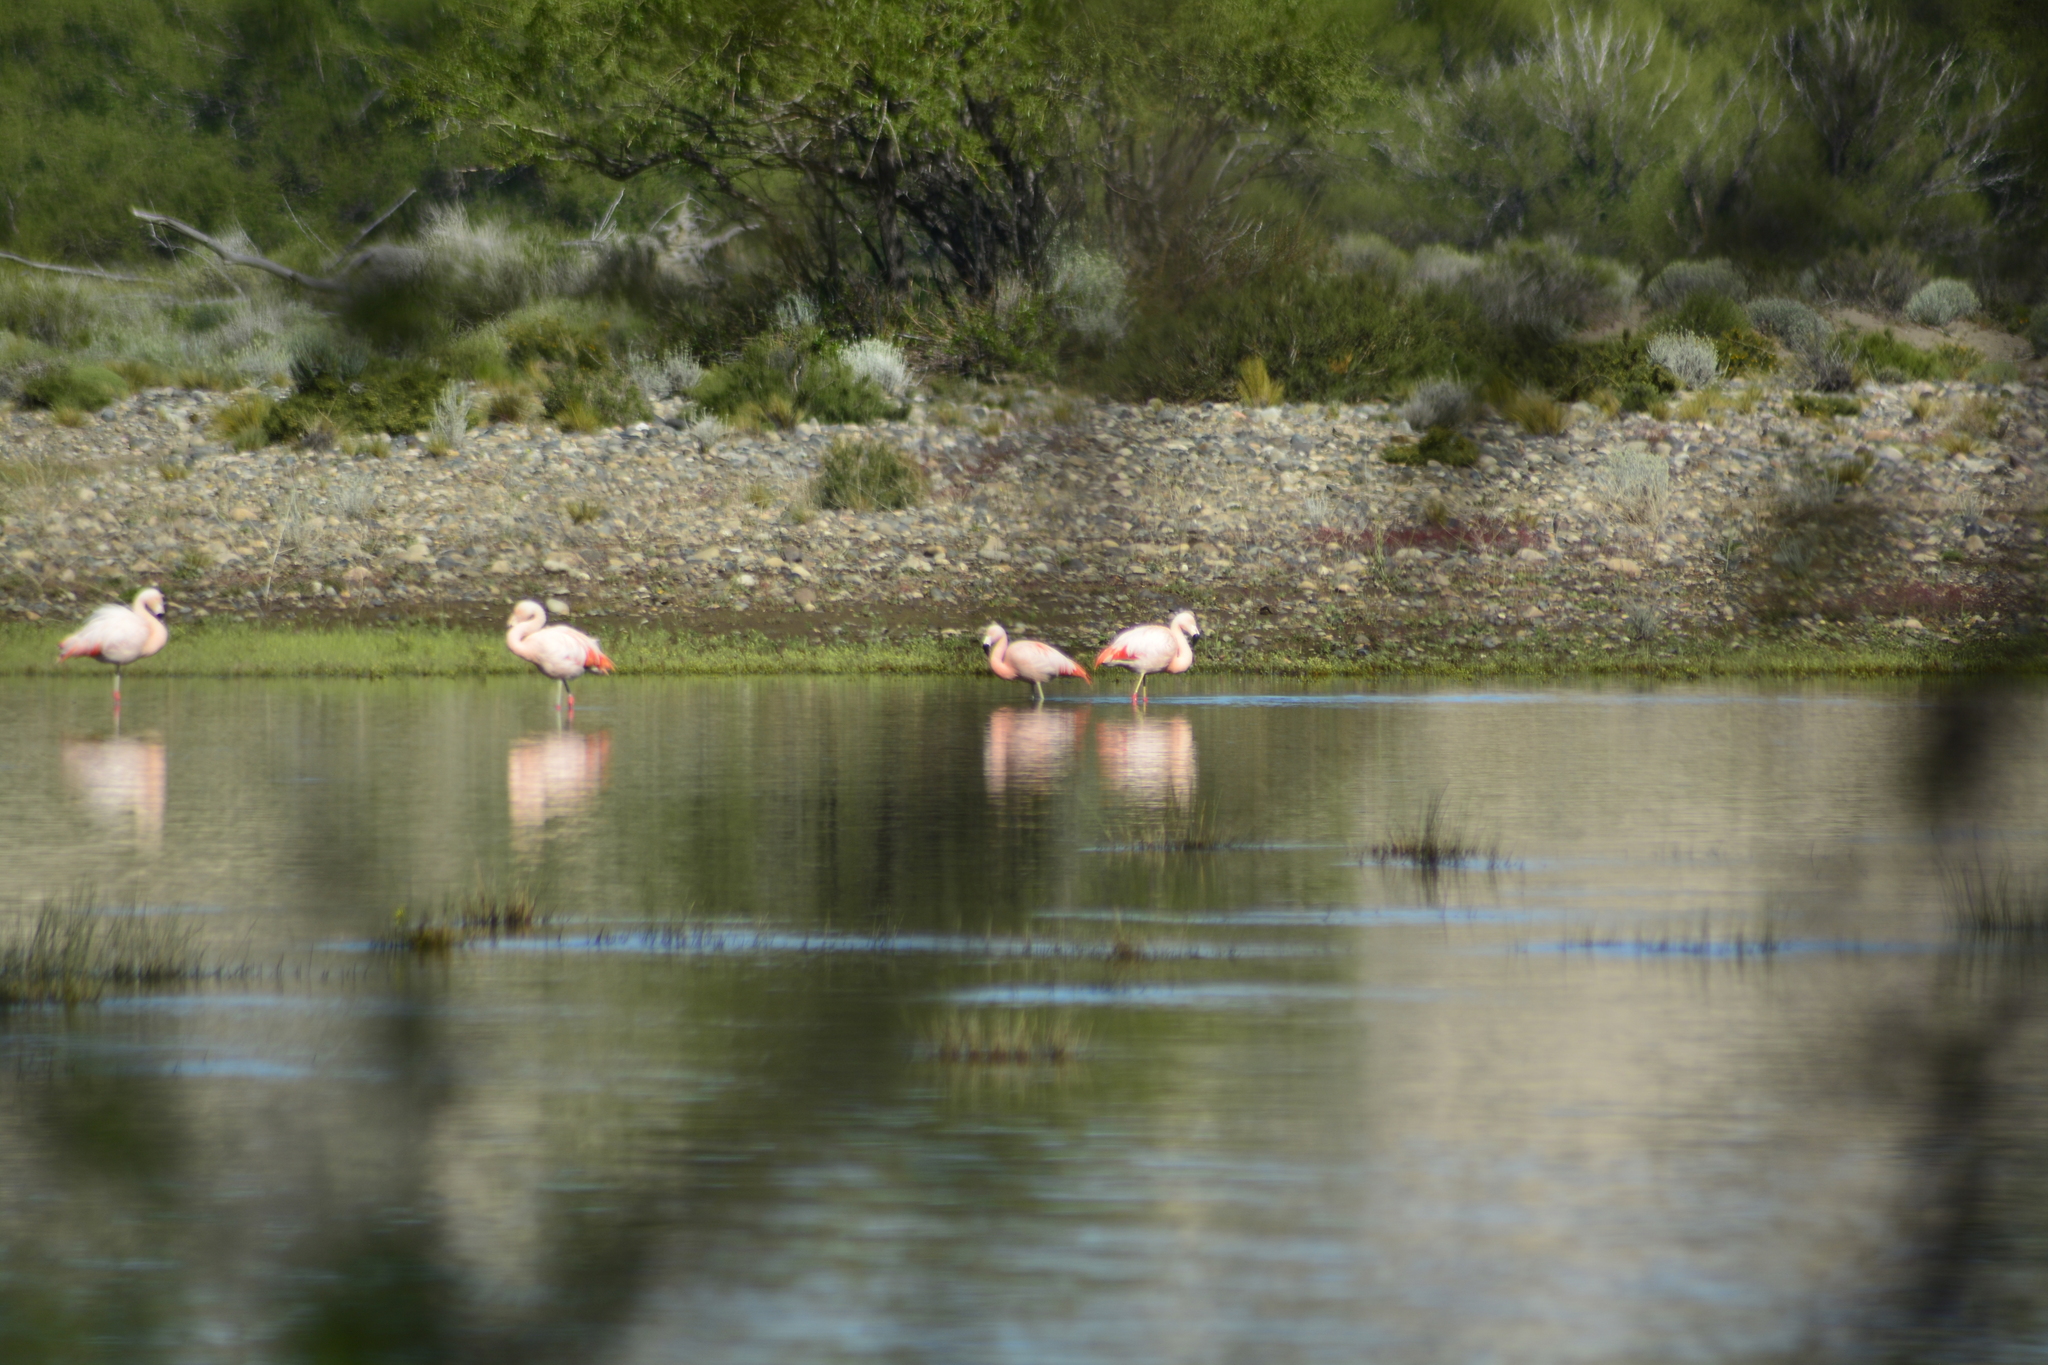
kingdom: Animalia
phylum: Chordata
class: Aves
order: Phoenicopteriformes
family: Phoenicopteridae
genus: Phoenicopterus
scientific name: Phoenicopterus chilensis
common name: Chilean flamingo
